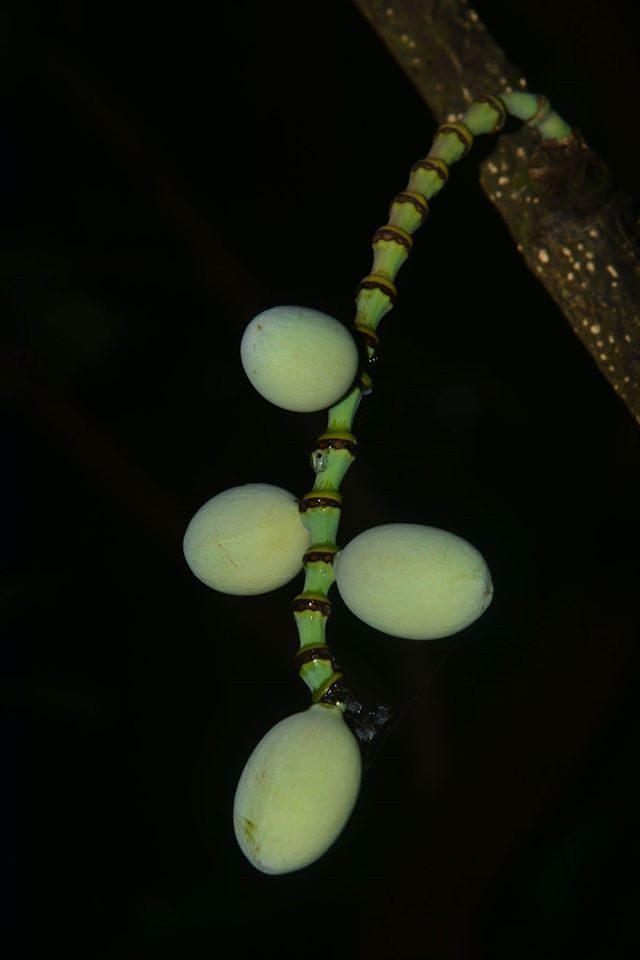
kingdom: Plantae
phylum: Tracheophyta
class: Gnetopsida
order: Gnetales
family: Gnetaceae
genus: Gnetum
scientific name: Gnetum edule
